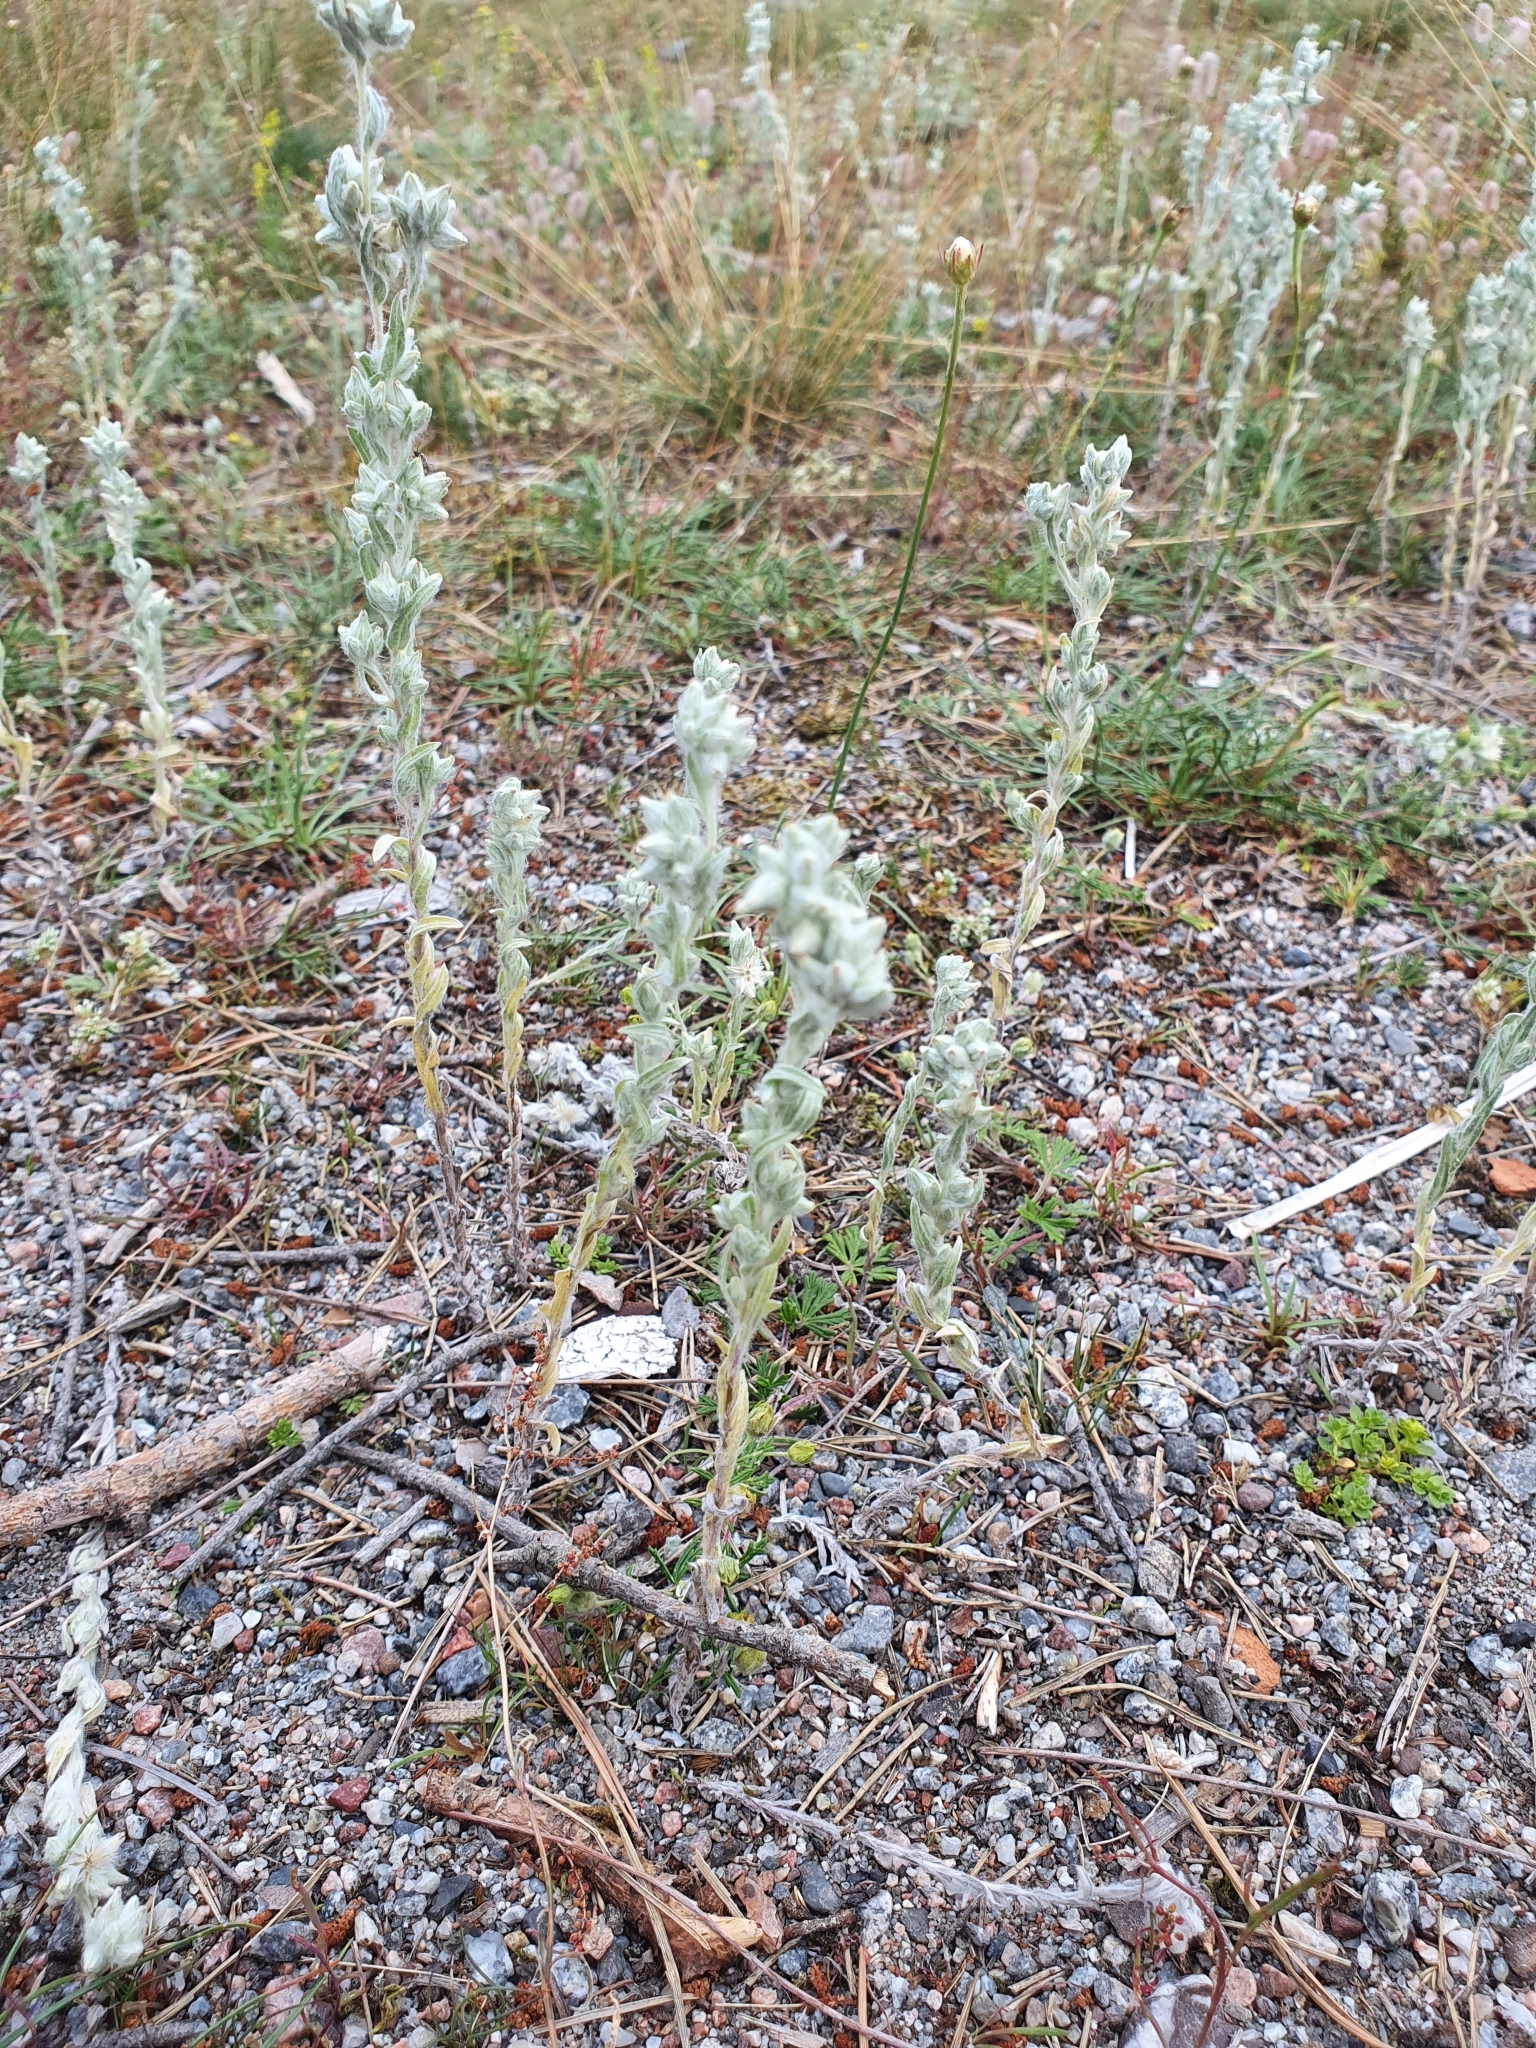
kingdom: Plantae
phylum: Tracheophyta
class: Magnoliopsida
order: Asterales
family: Asteraceae
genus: Filago
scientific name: Filago arvensis
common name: Field cudweed
